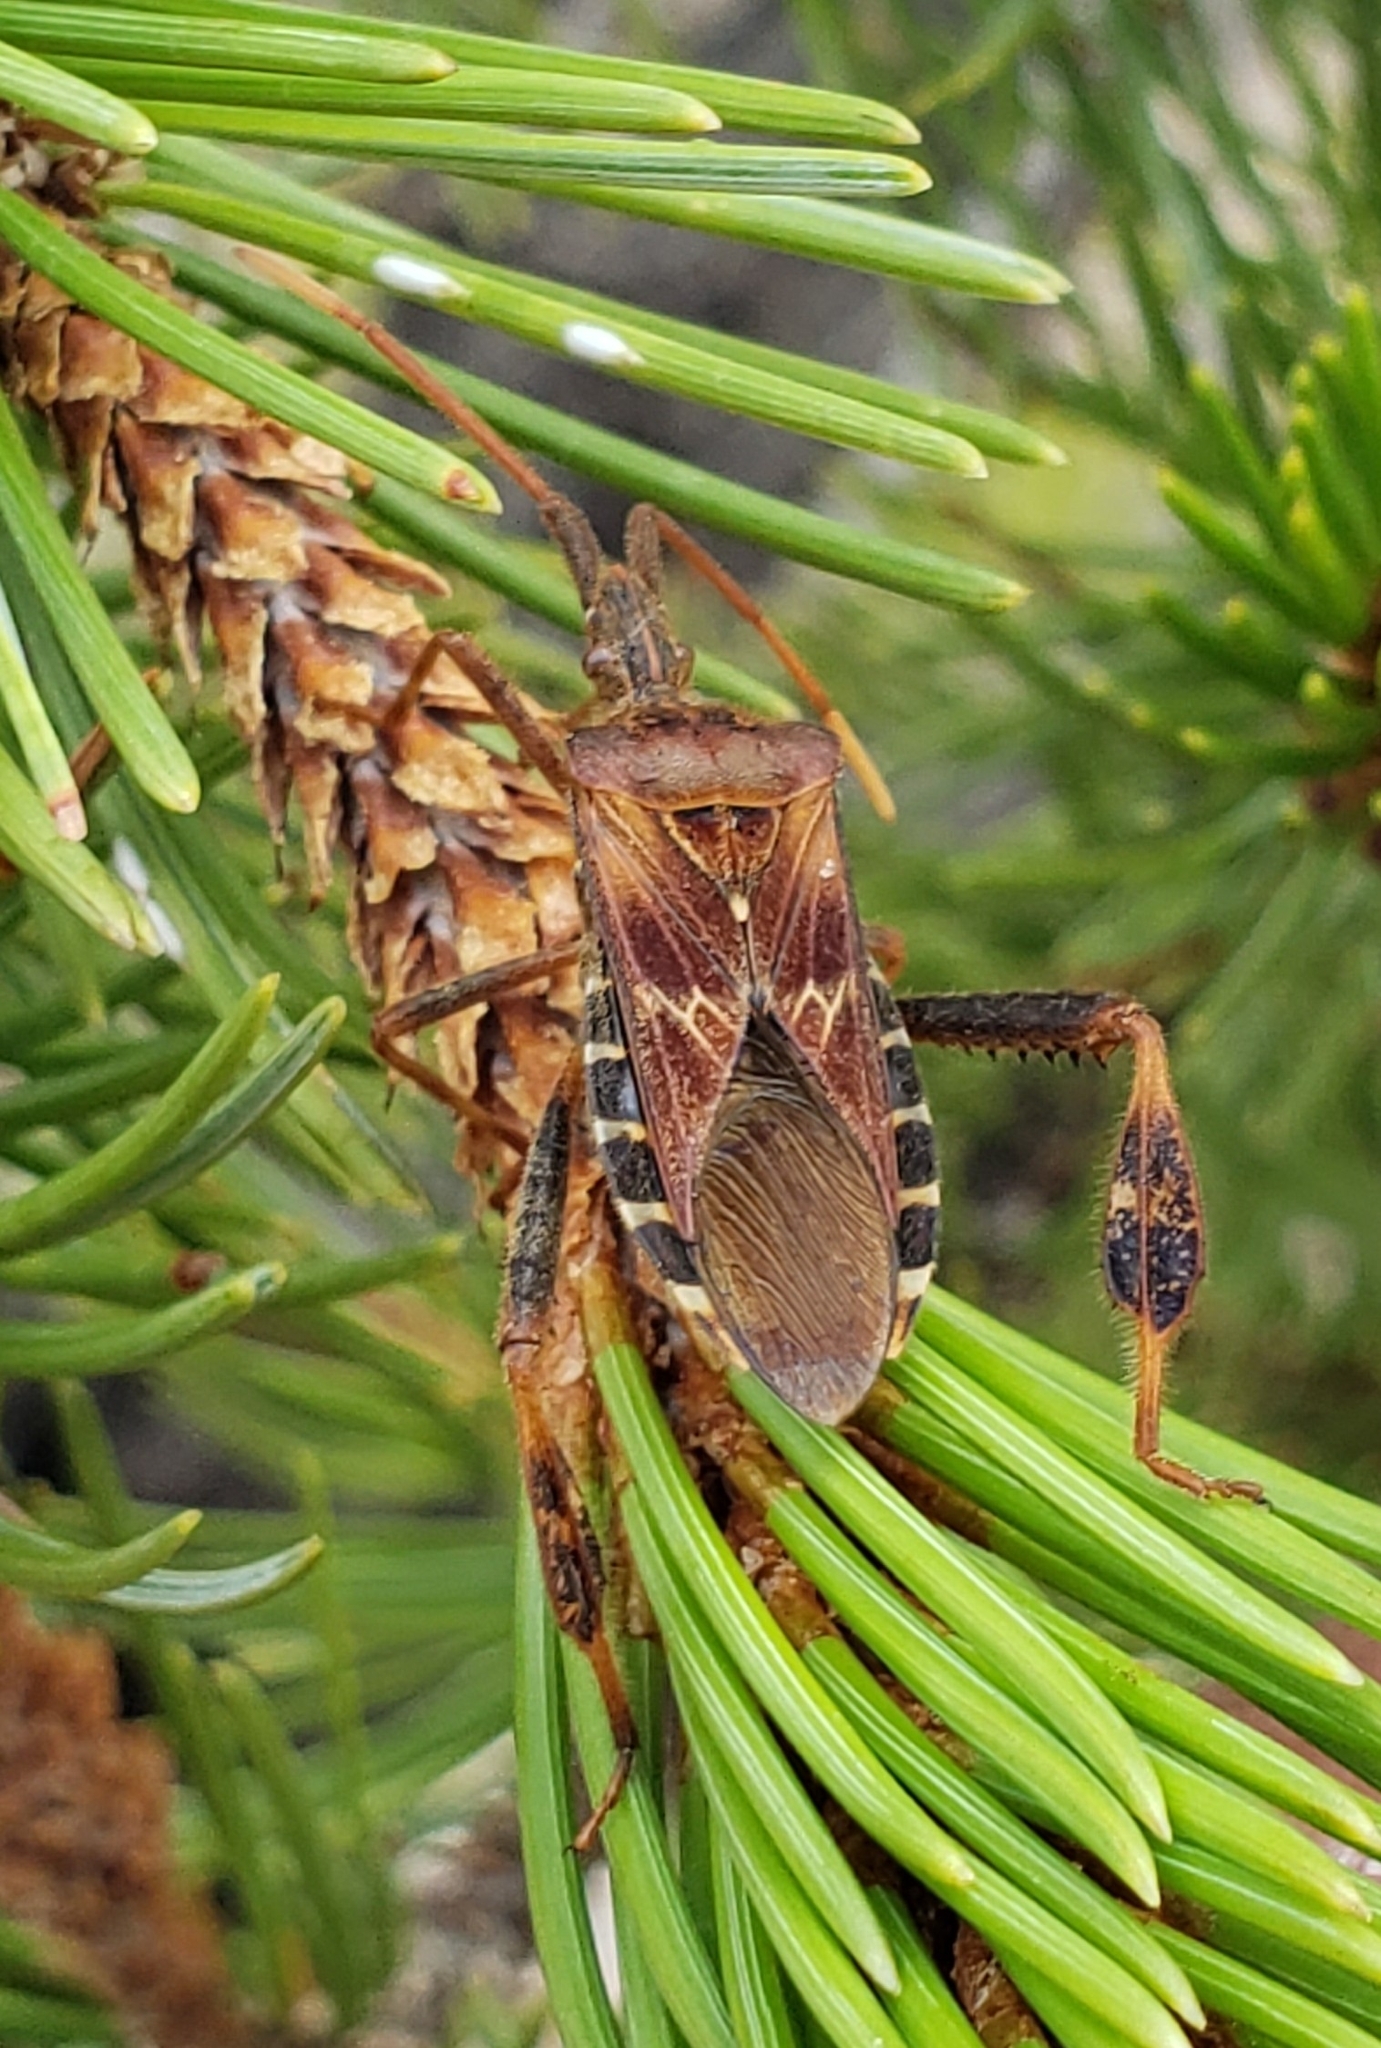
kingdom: Animalia
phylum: Arthropoda
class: Insecta
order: Hemiptera
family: Coreidae
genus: Leptoglossus
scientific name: Leptoglossus occidentalis
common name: Western conifer-seed bug
